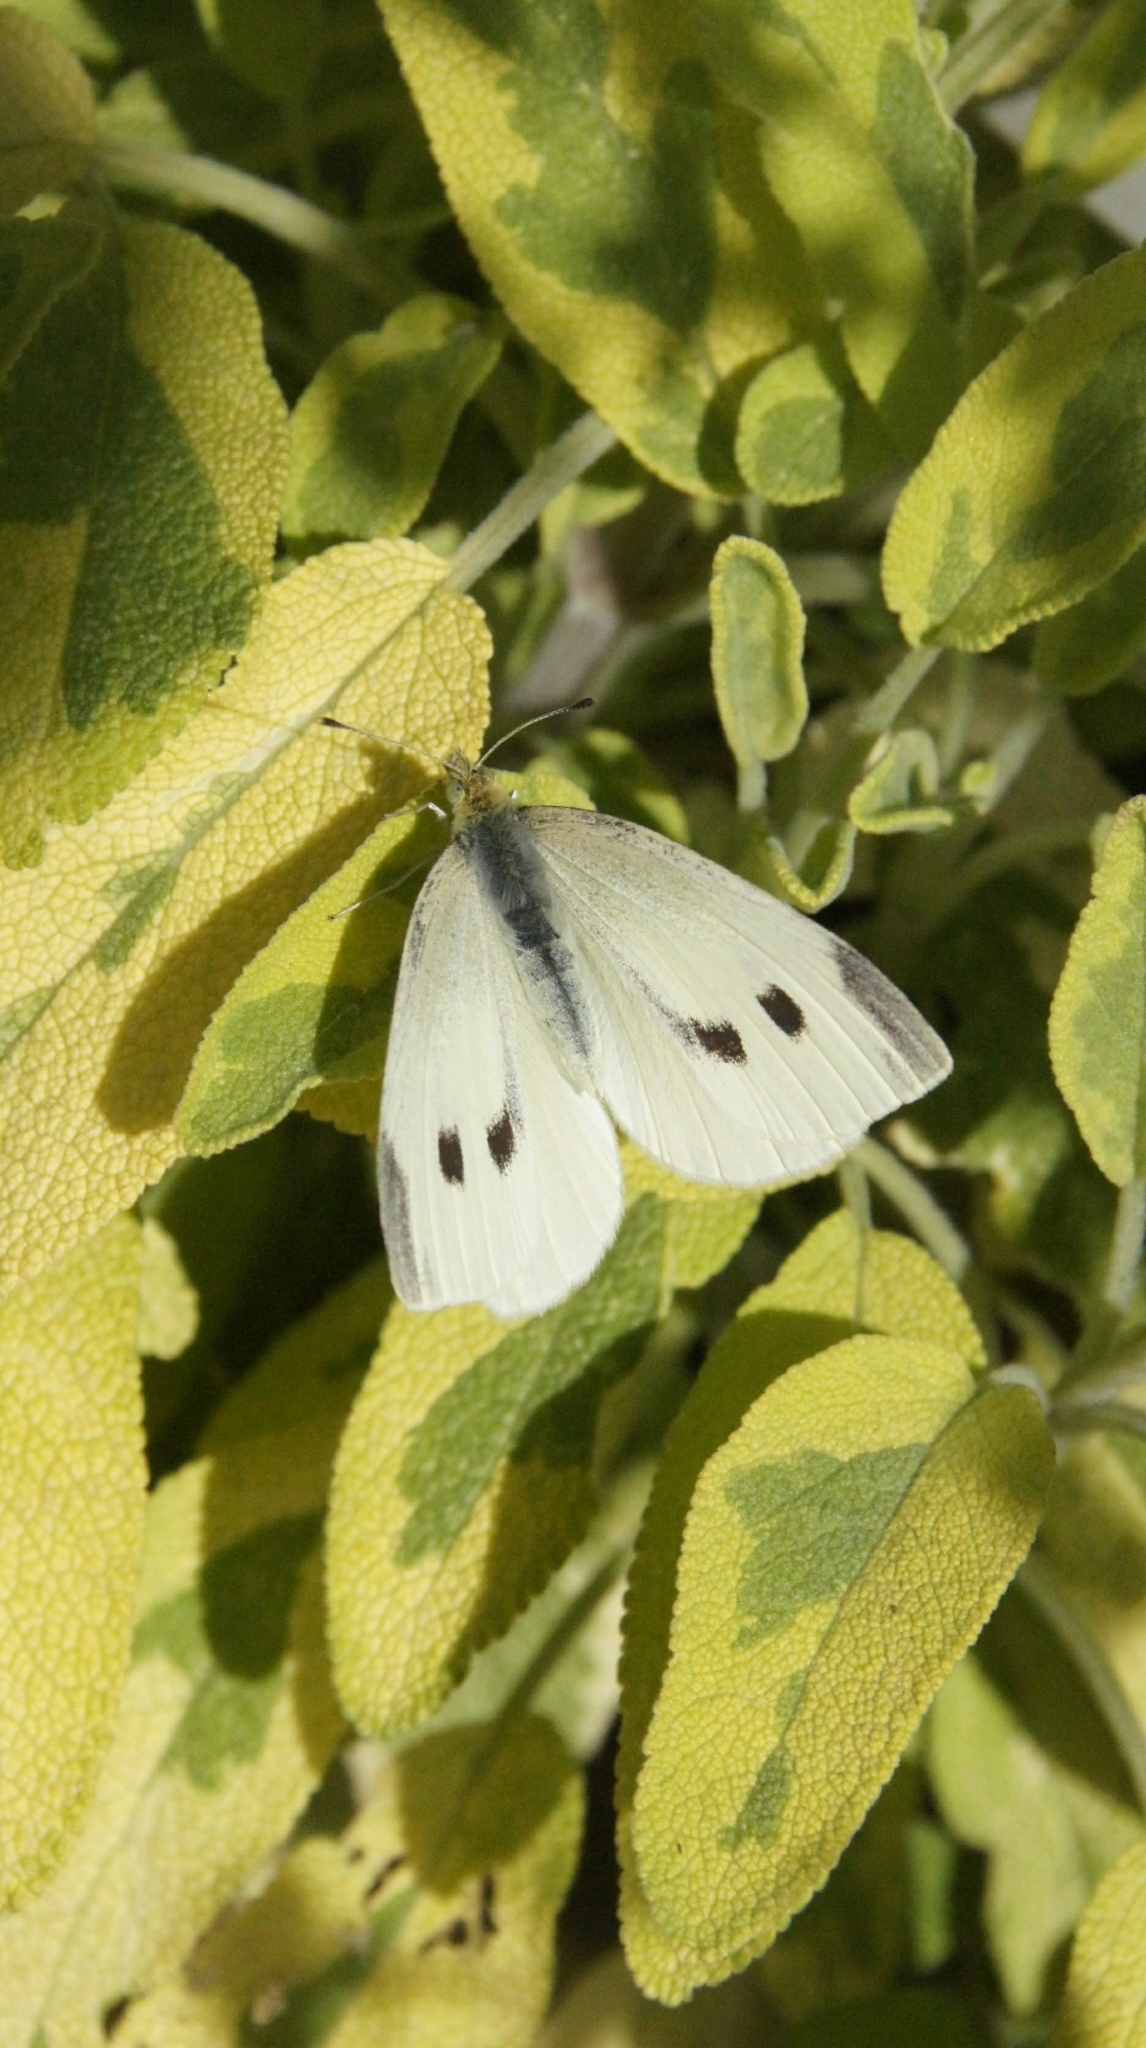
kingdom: Animalia
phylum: Arthropoda
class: Insecta
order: Lepidoptera
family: Pieridae
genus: Pieris
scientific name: Pieris rapae
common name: Small white
